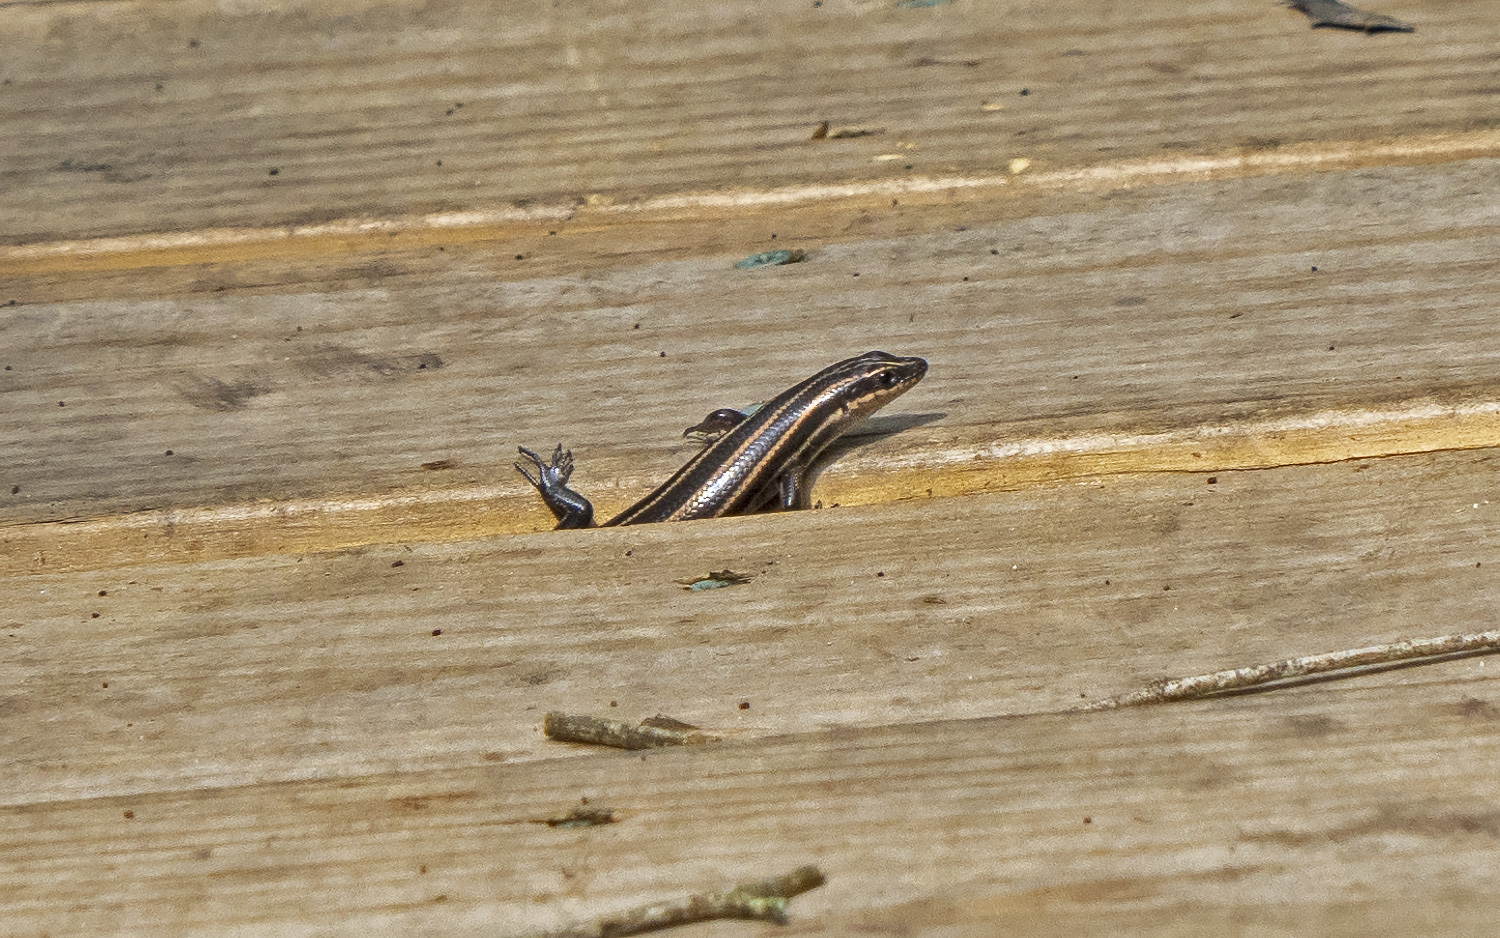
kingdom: Animalia
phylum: Chordata
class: Squamata
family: Scincidae
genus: Plestiodon
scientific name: Plestiodon fasciatus
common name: Five-lined skink
